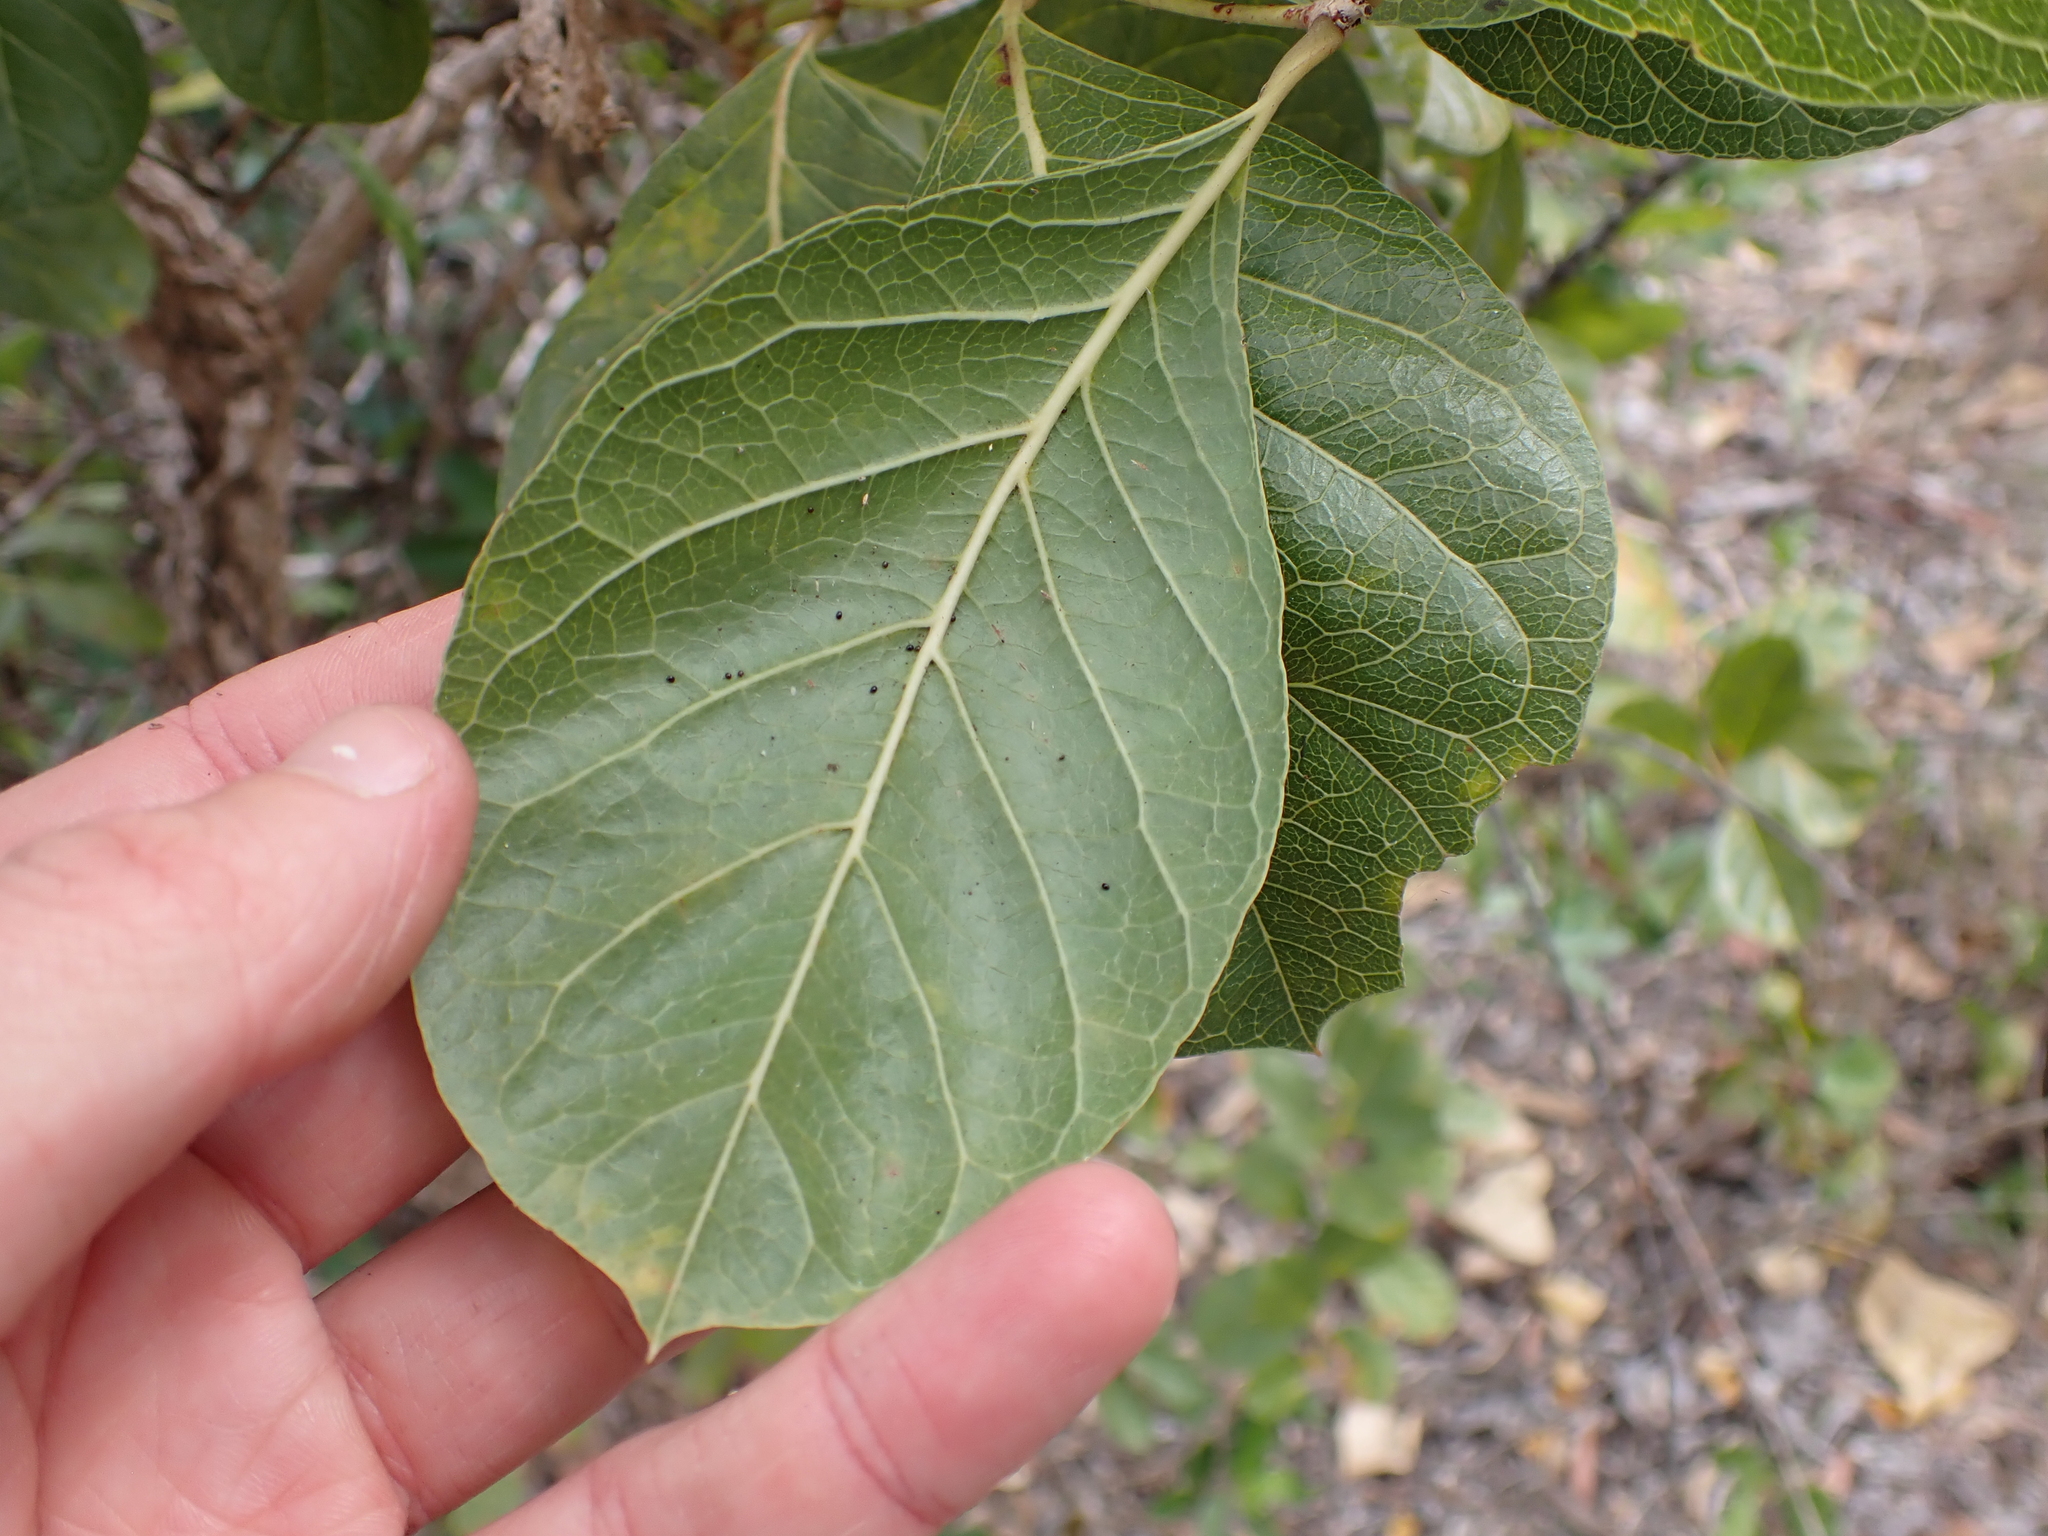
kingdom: Plantae
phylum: Tracheophyta
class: Magnoliopsida
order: Gentianales
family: Rubiaceae
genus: Coelospermum
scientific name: Coelospermum reticulatum
